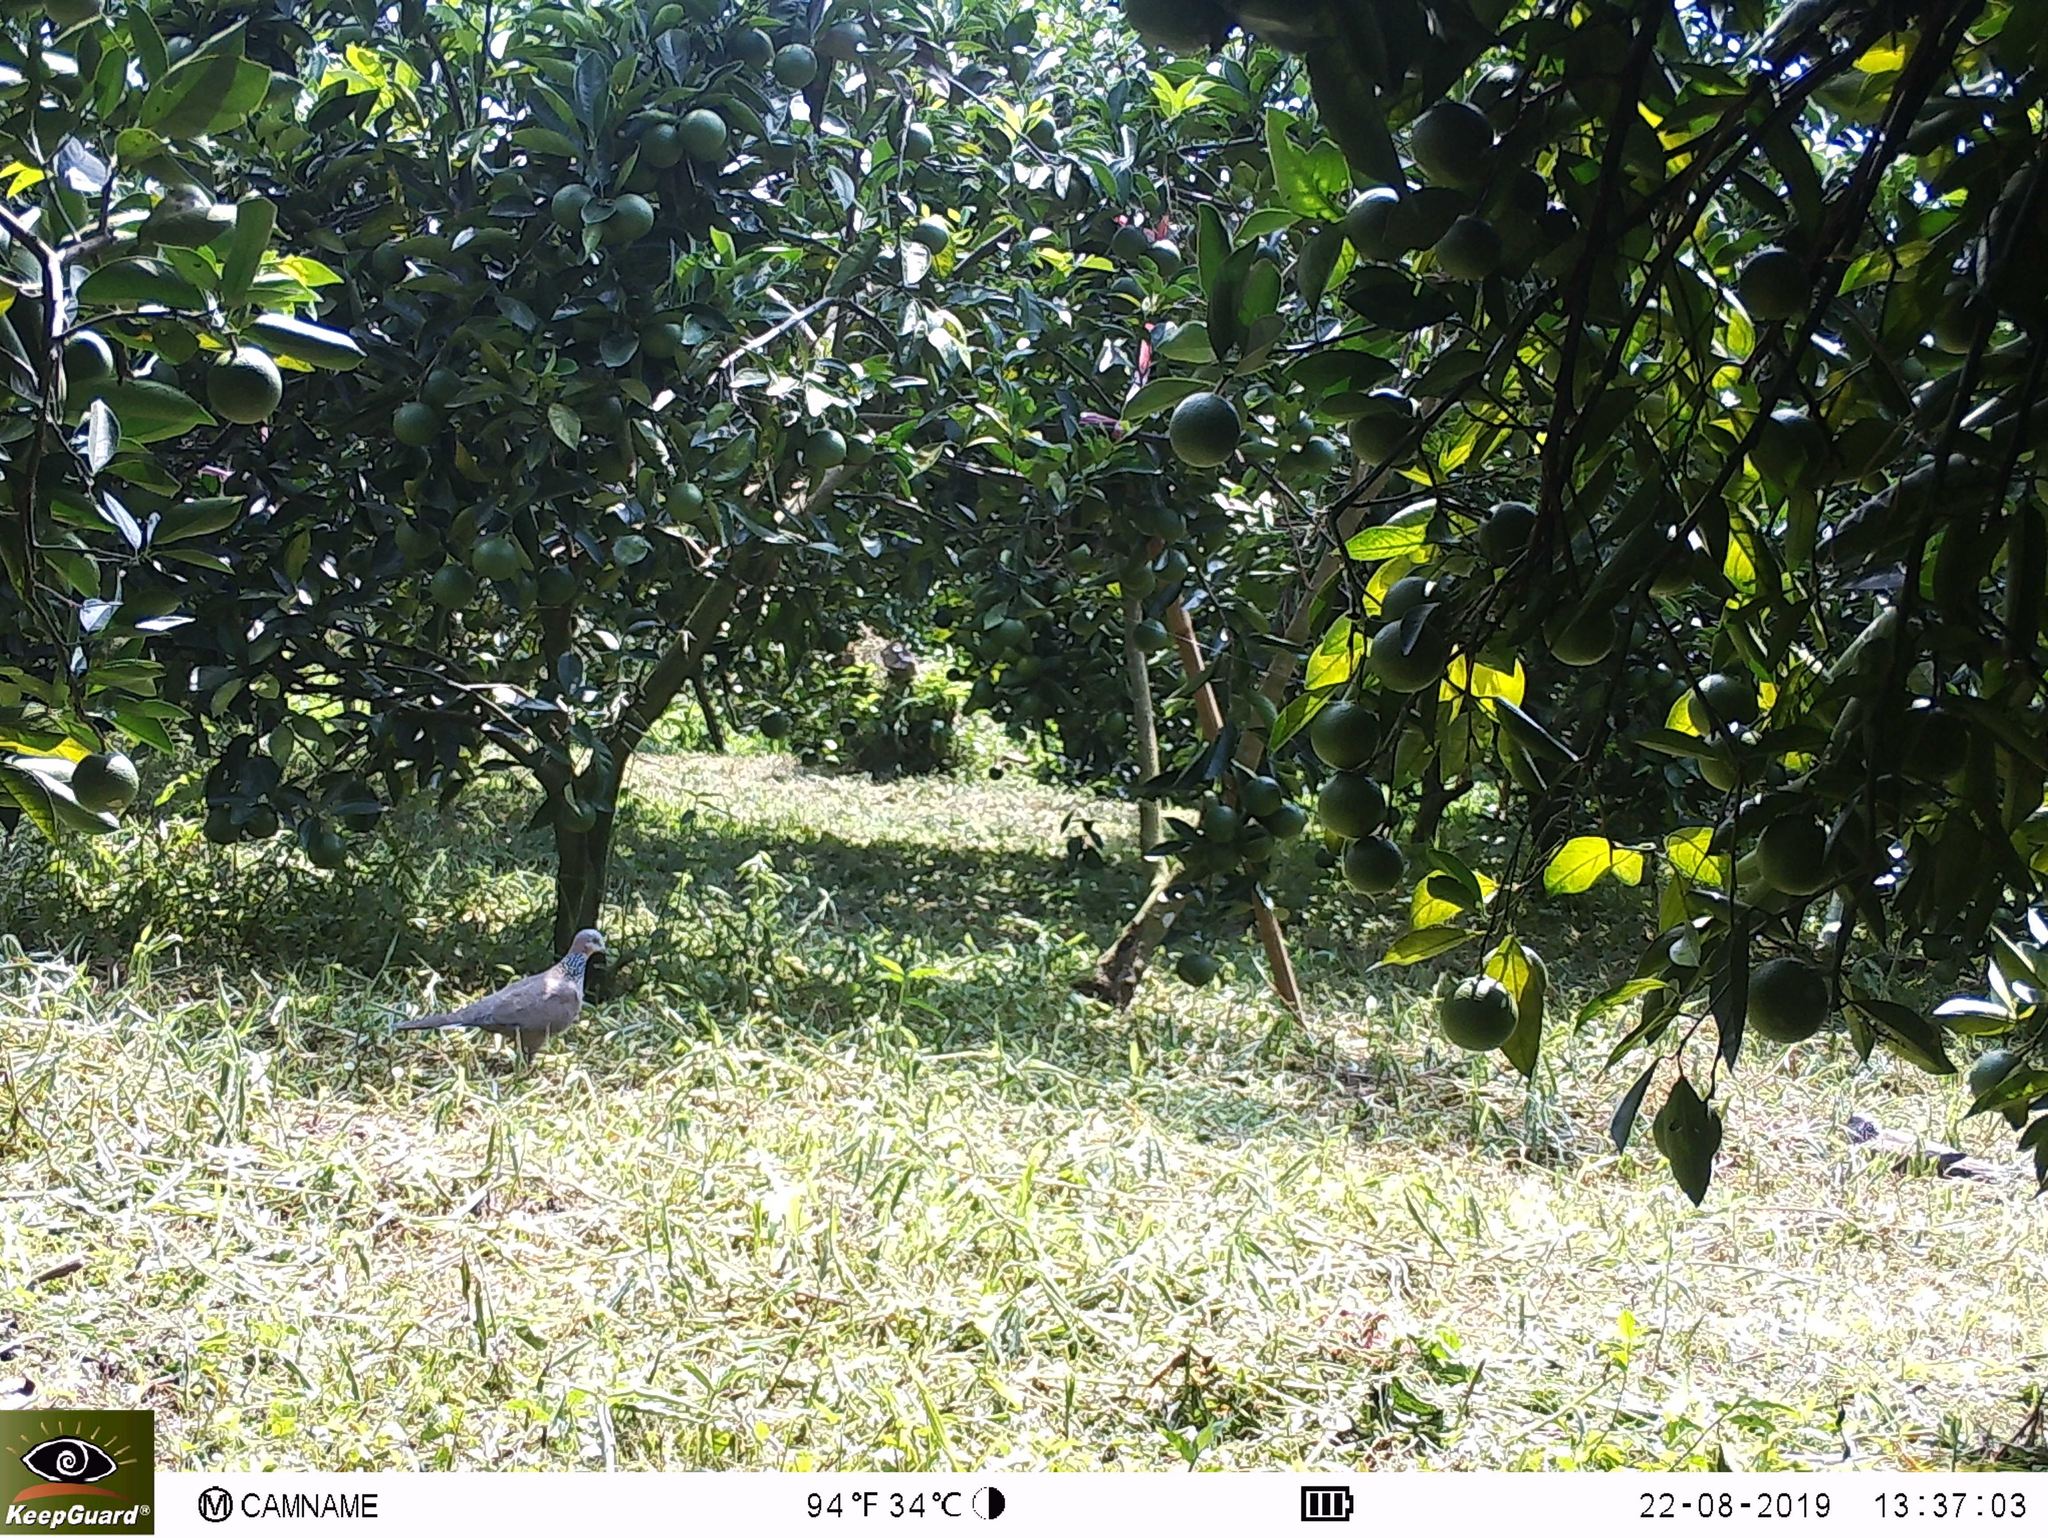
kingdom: Animalia
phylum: Chordata
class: Aves
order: Columbiformes
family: Columbidae
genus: Spilopelia
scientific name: Spilopelia chinensis
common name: Spotted dove
